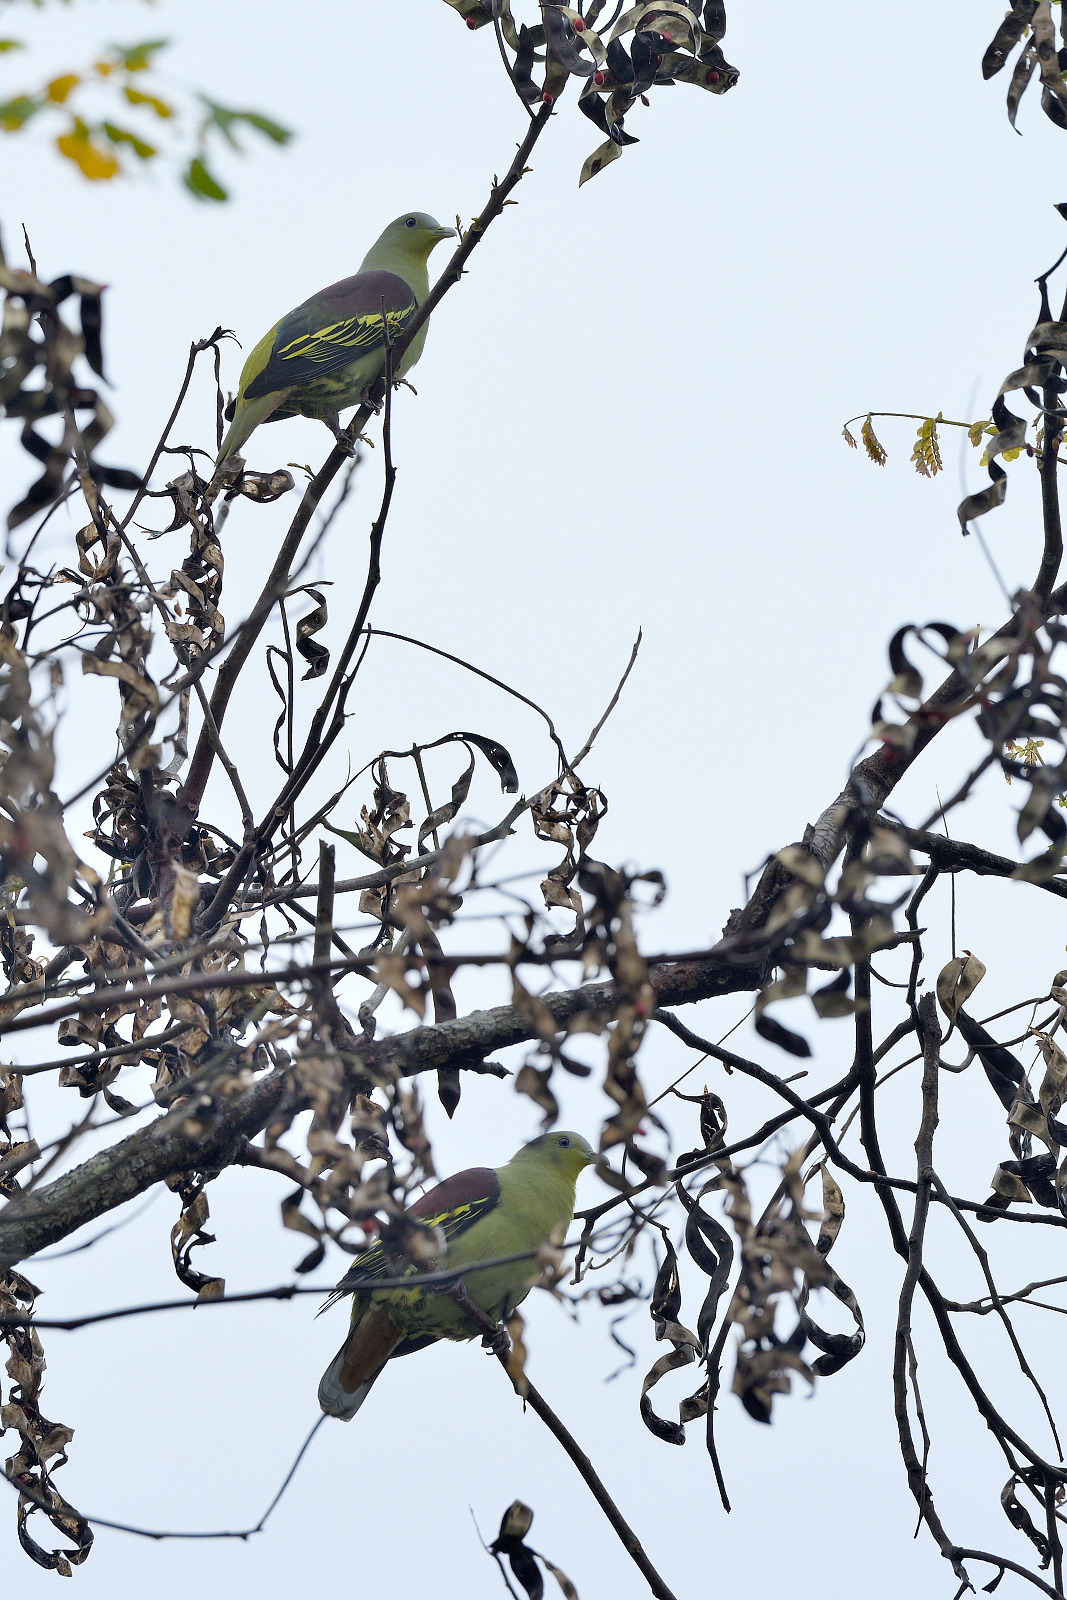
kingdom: Animalia
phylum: Chordata
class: Aves
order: Columbiformes
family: Columbidae
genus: Treron
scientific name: Treron affinis
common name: Grey-fronted green pigeon
